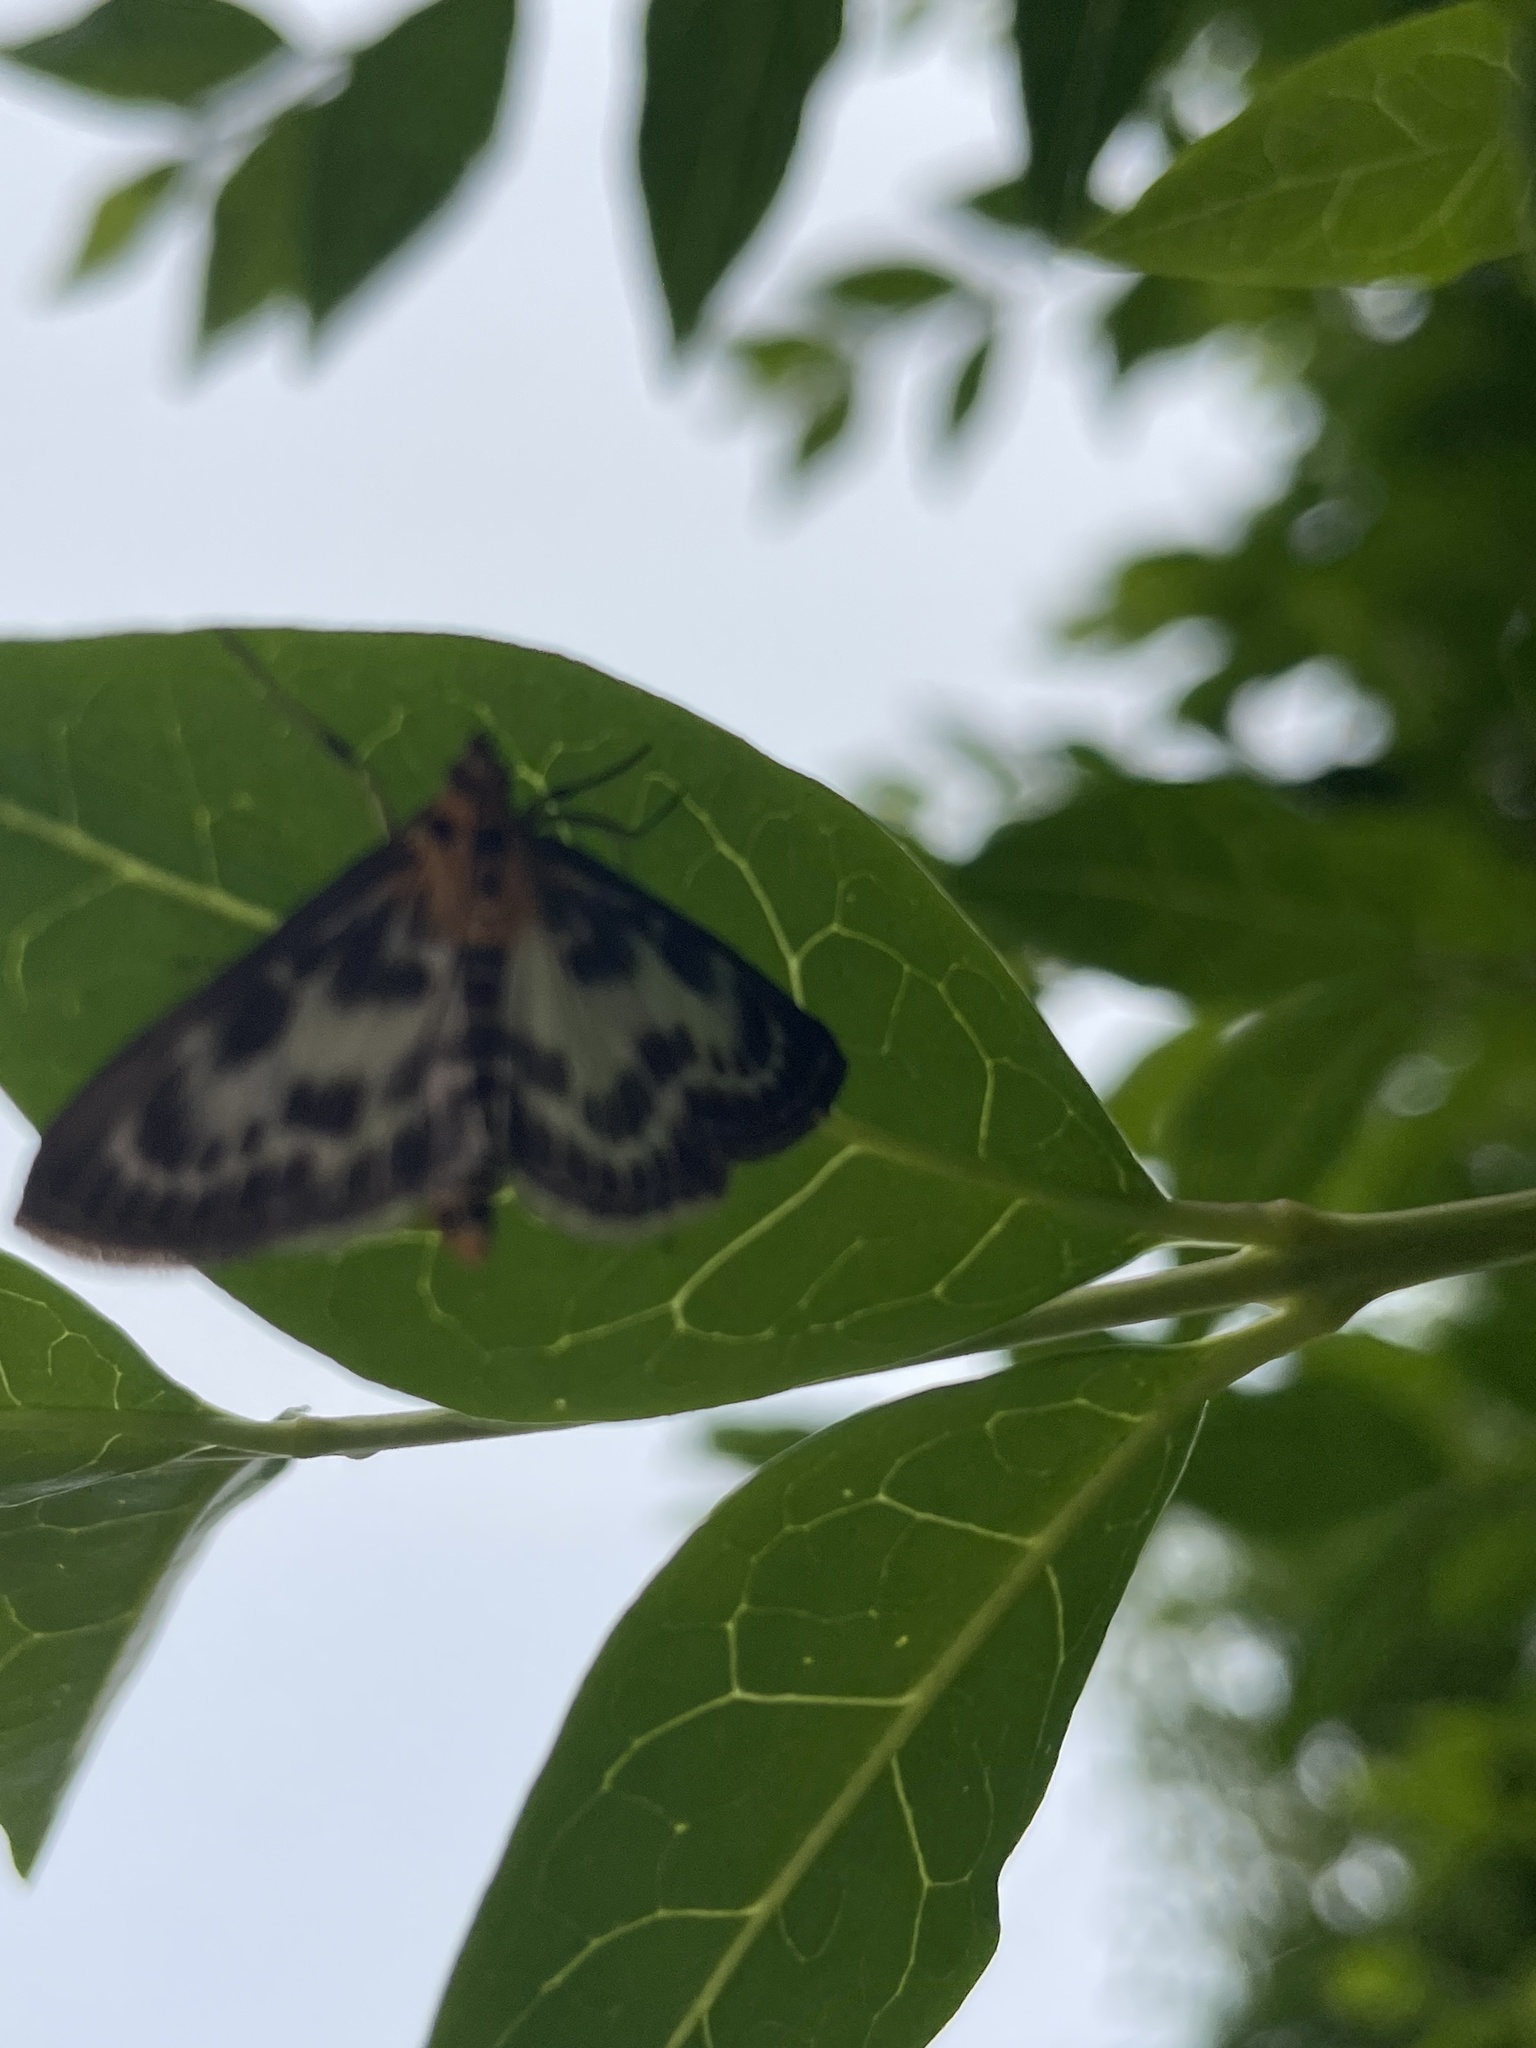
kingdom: Animalia
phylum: Arthropoda
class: Insecta
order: Lepidoptera
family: Crambidae
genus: Anania
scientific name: Anania hortulata
